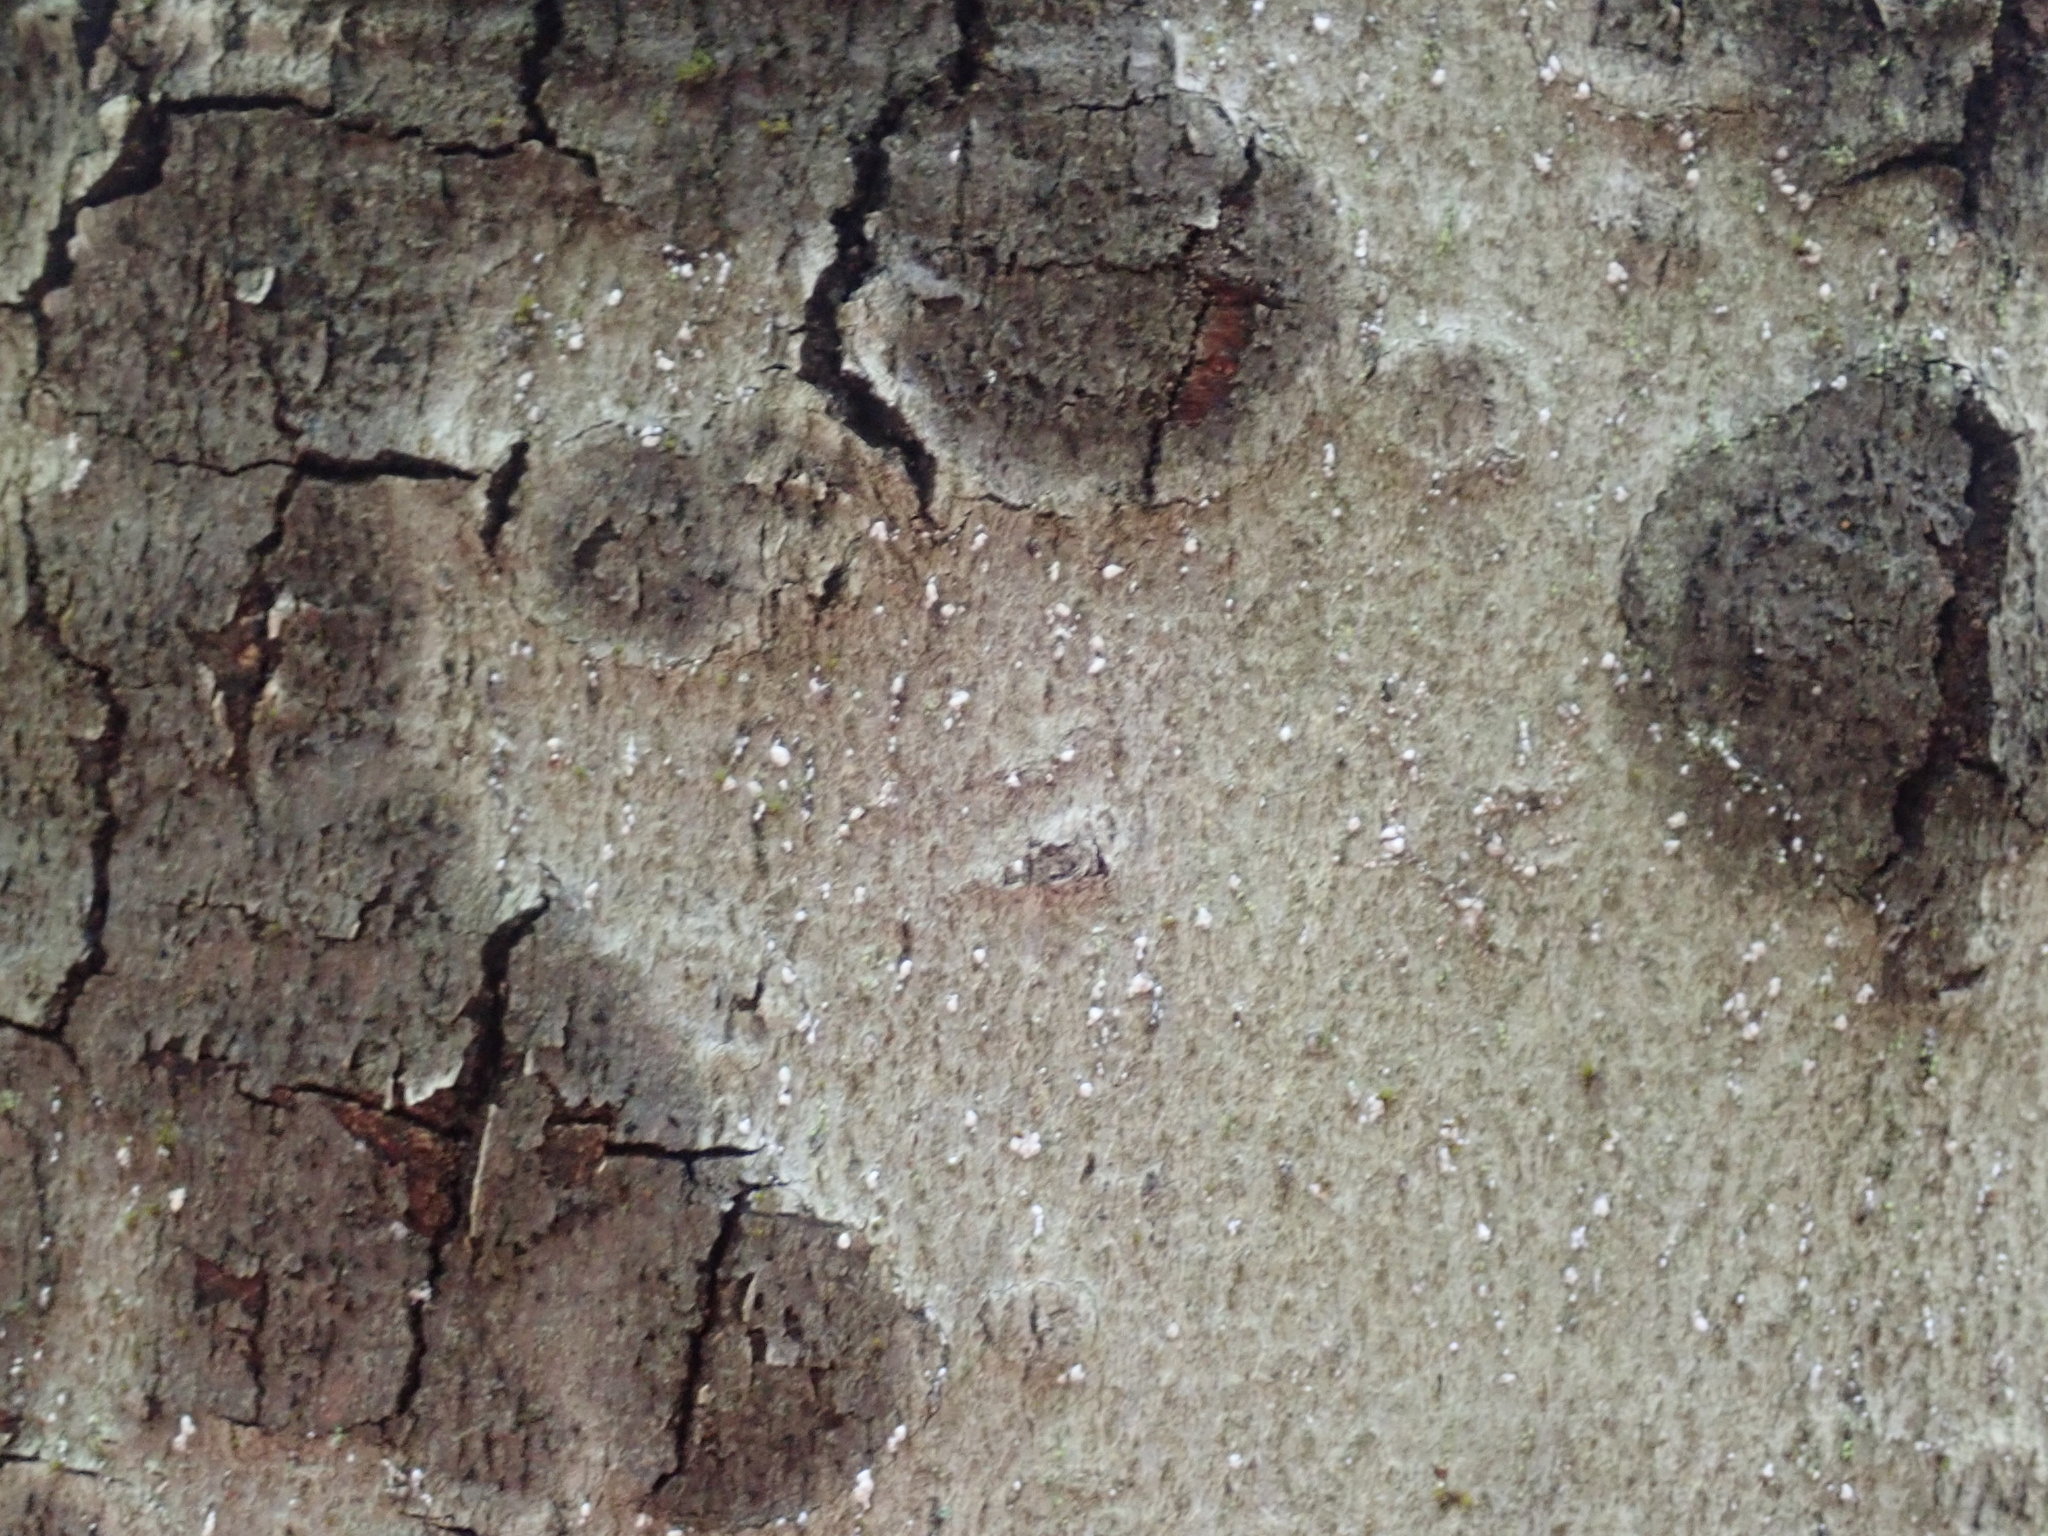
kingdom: Animalia
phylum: Arthropoda
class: Insecta
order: Hemiptera
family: Eriococcidae
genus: Cryptococcus
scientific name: Cryptococcus fagisuga
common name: Beech scale
